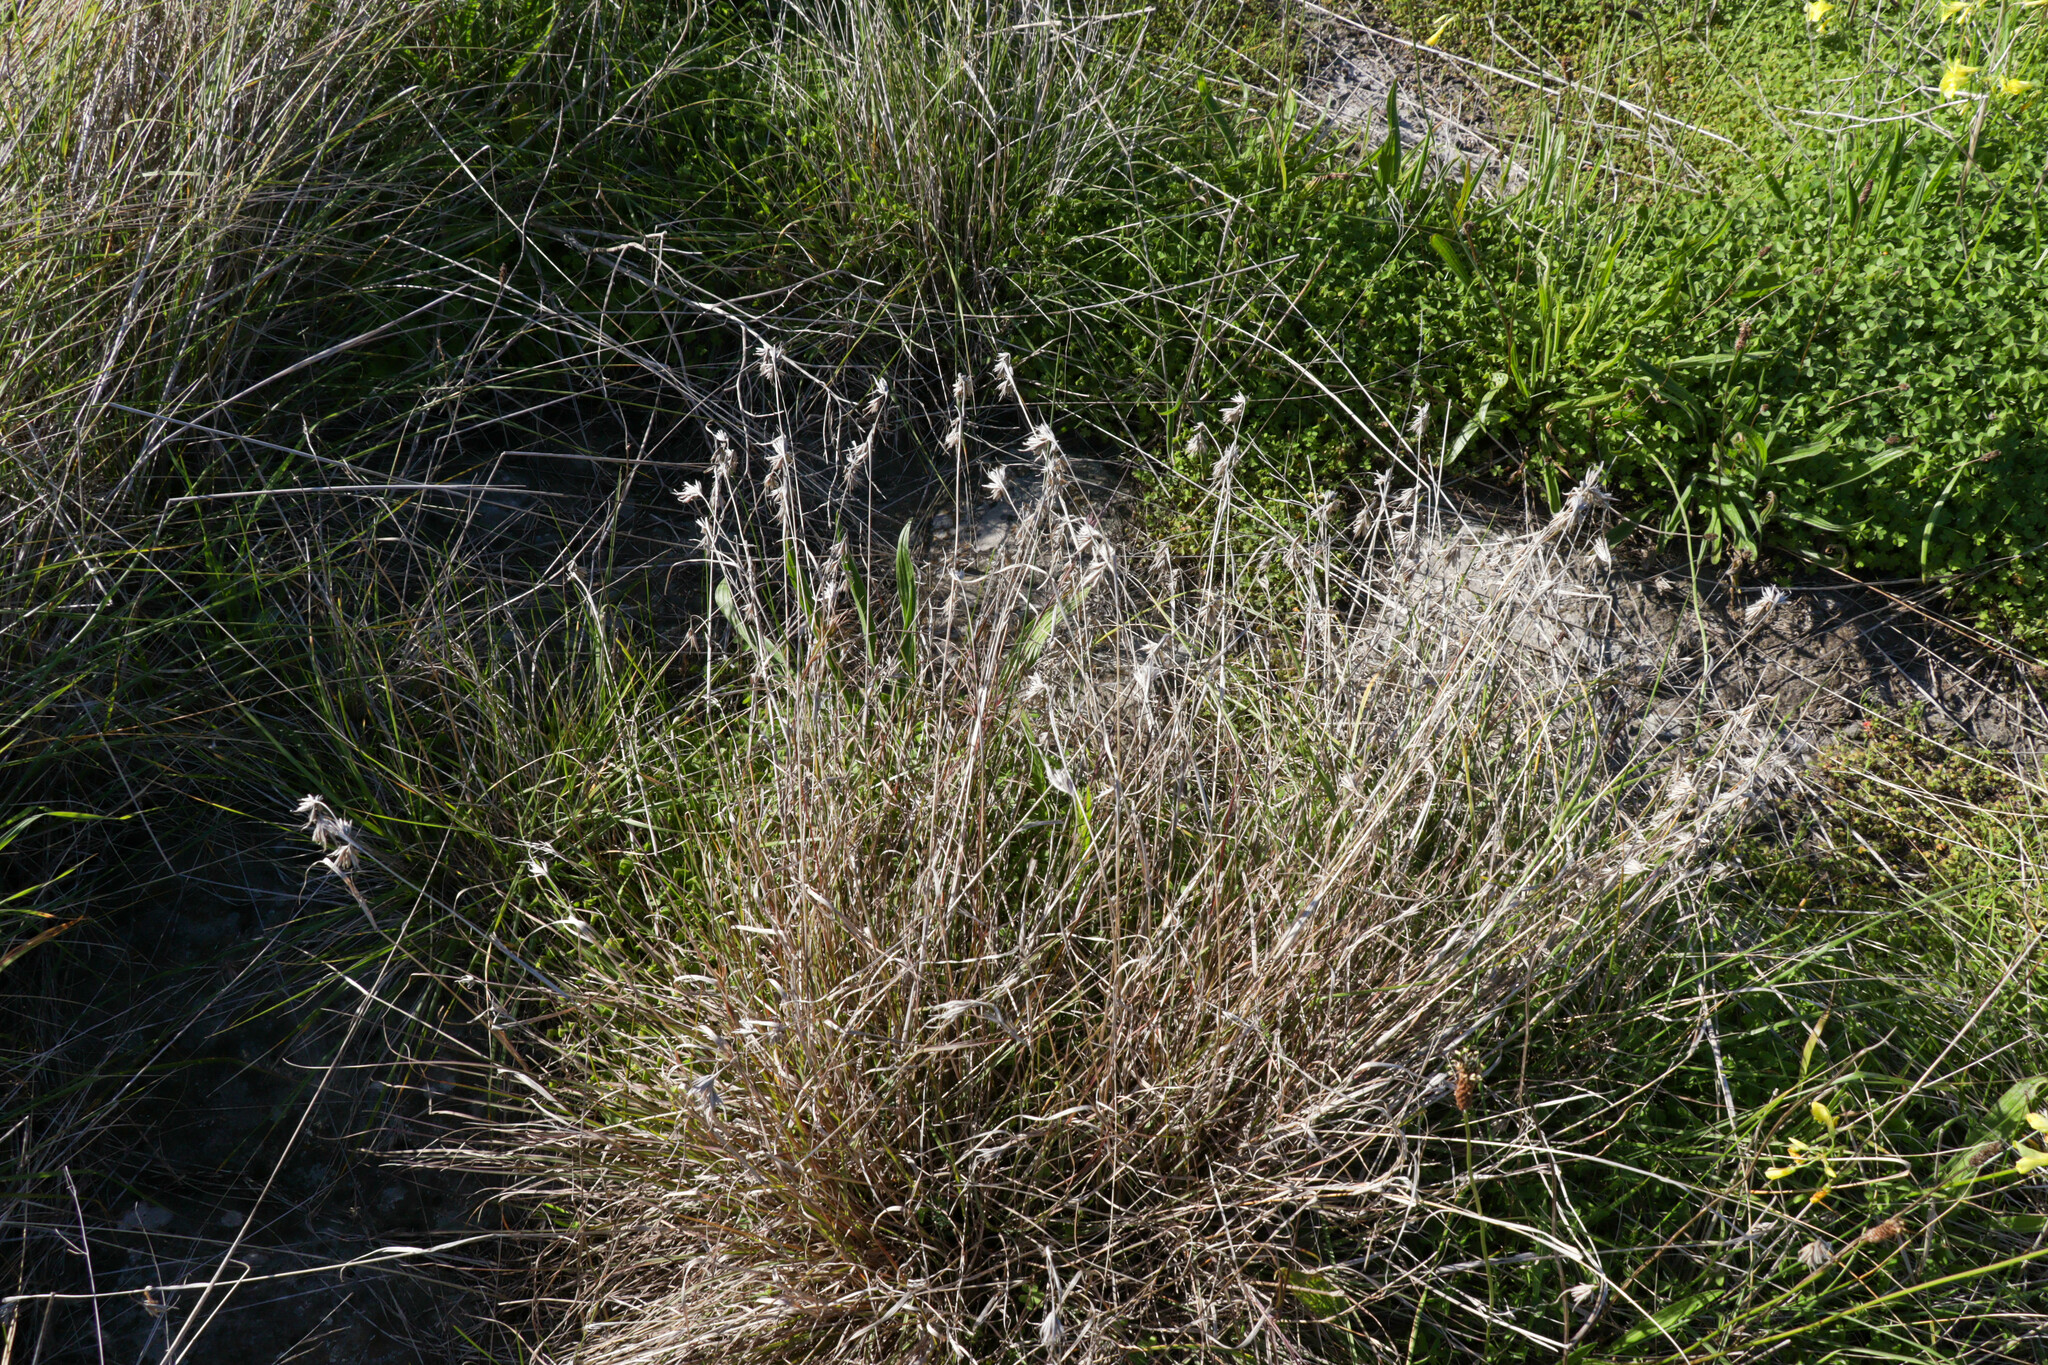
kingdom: Plantae
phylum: Tracheophyta
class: Liliopsida
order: Poales
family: Poaceae
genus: Themeda
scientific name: Themeda triandra
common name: Kangaroo grass
